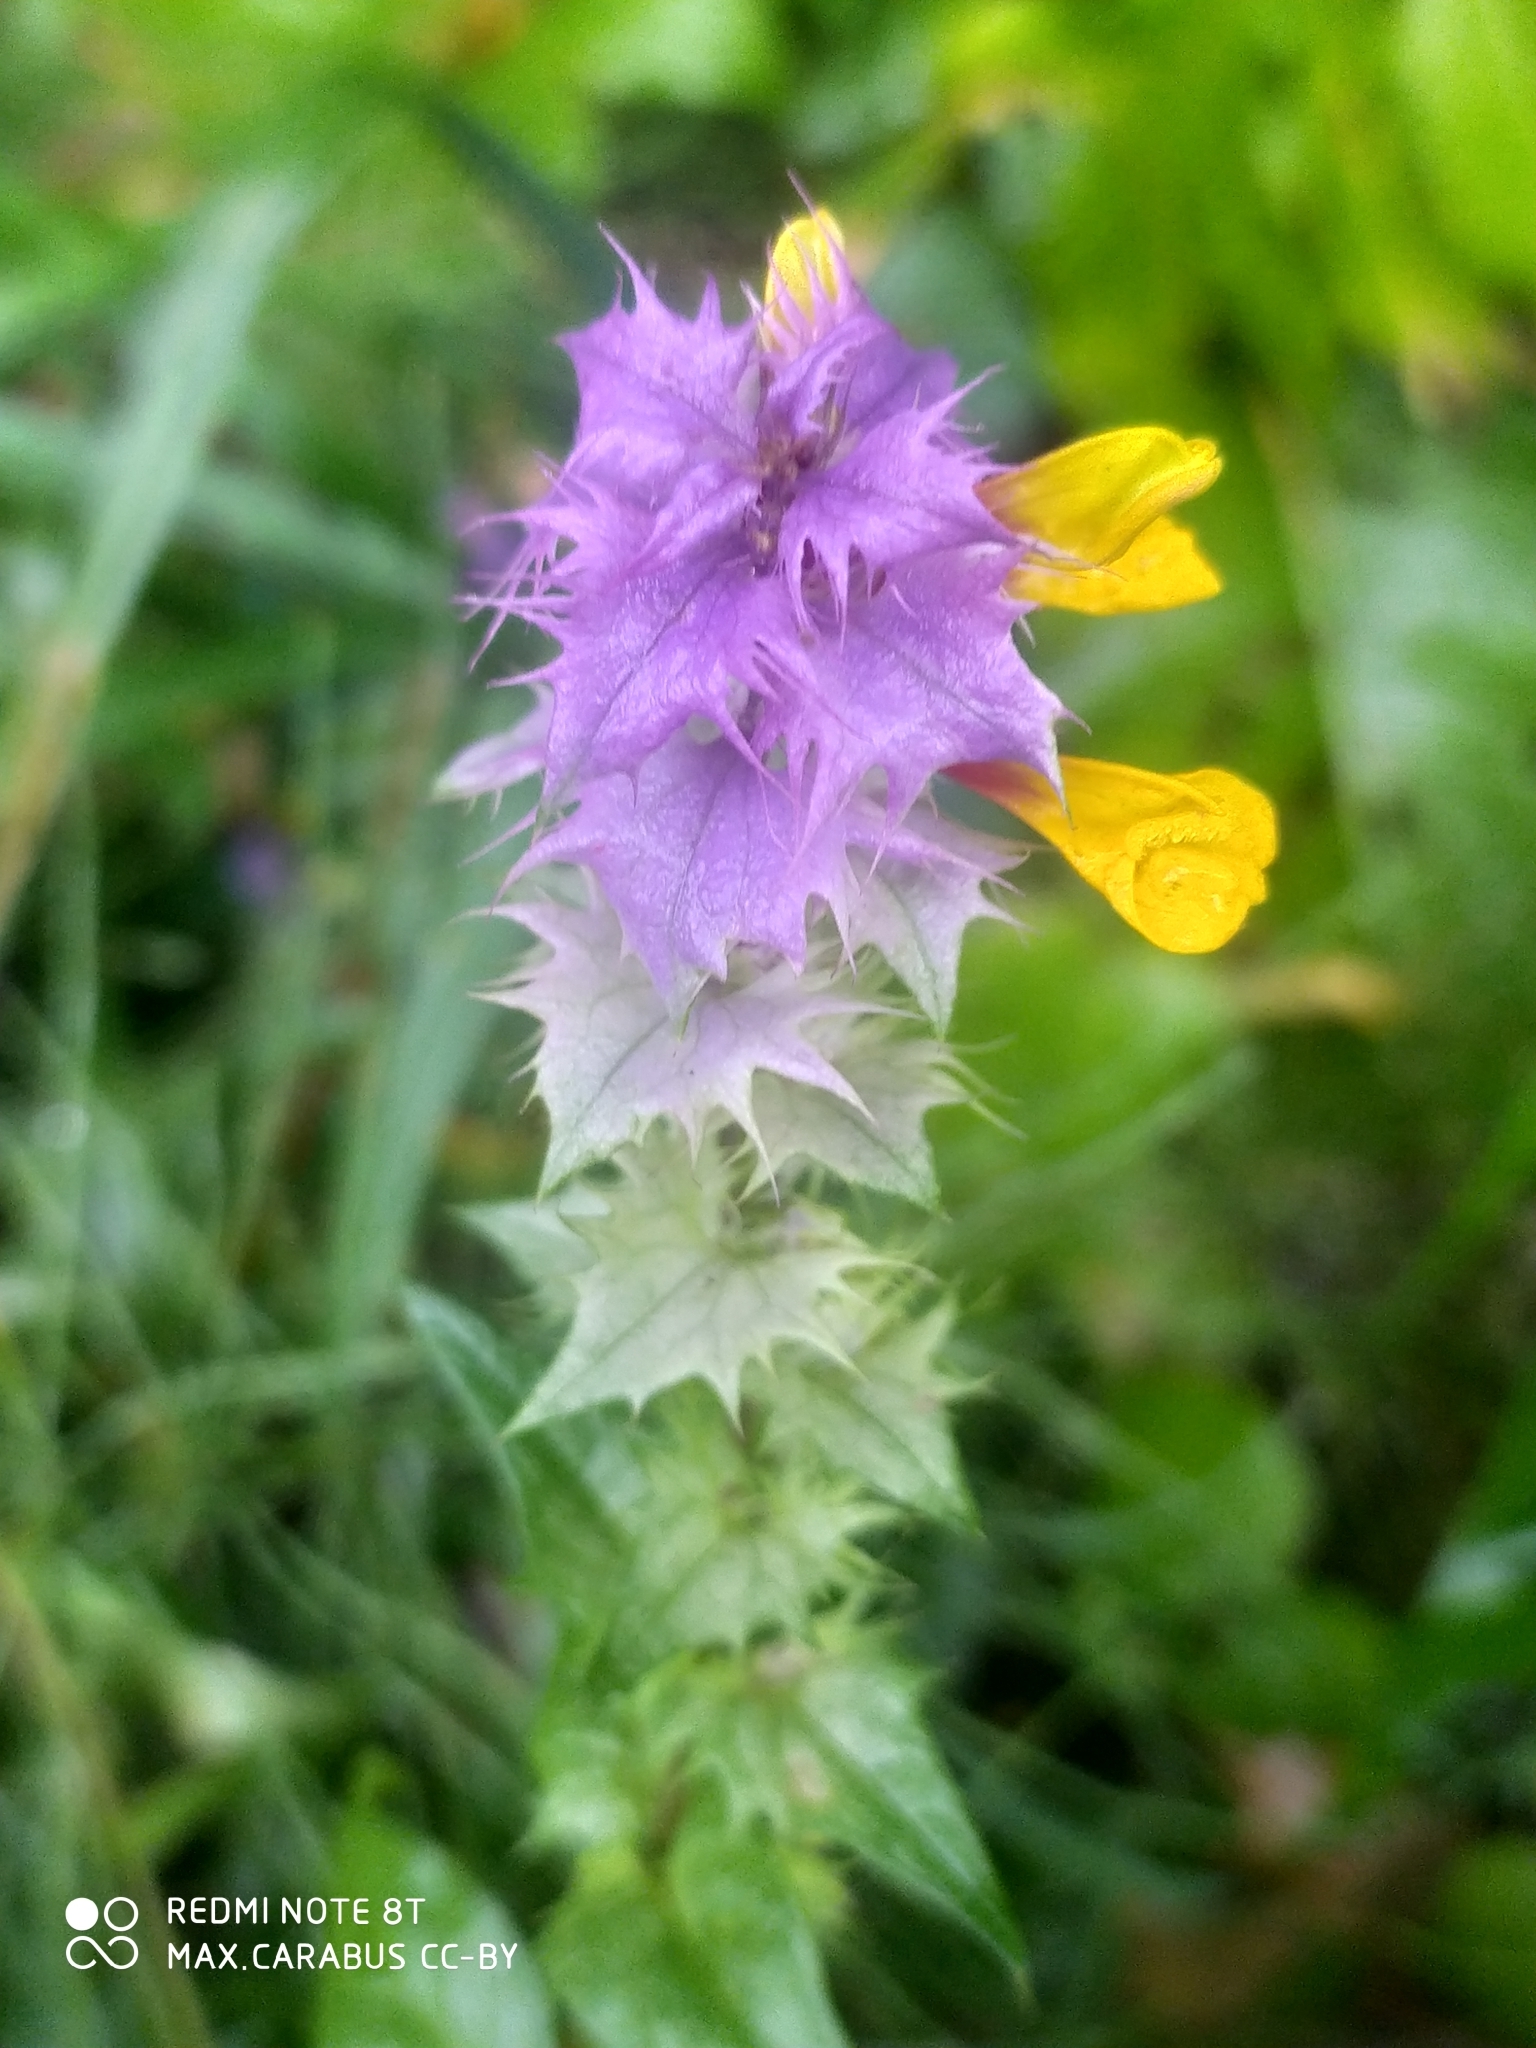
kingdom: Plantae
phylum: Tracheophyta
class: Magnoliopsida
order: Lamiales
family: Orobanchaceae
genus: Melampyrum
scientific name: Melampyrum nemorosum
